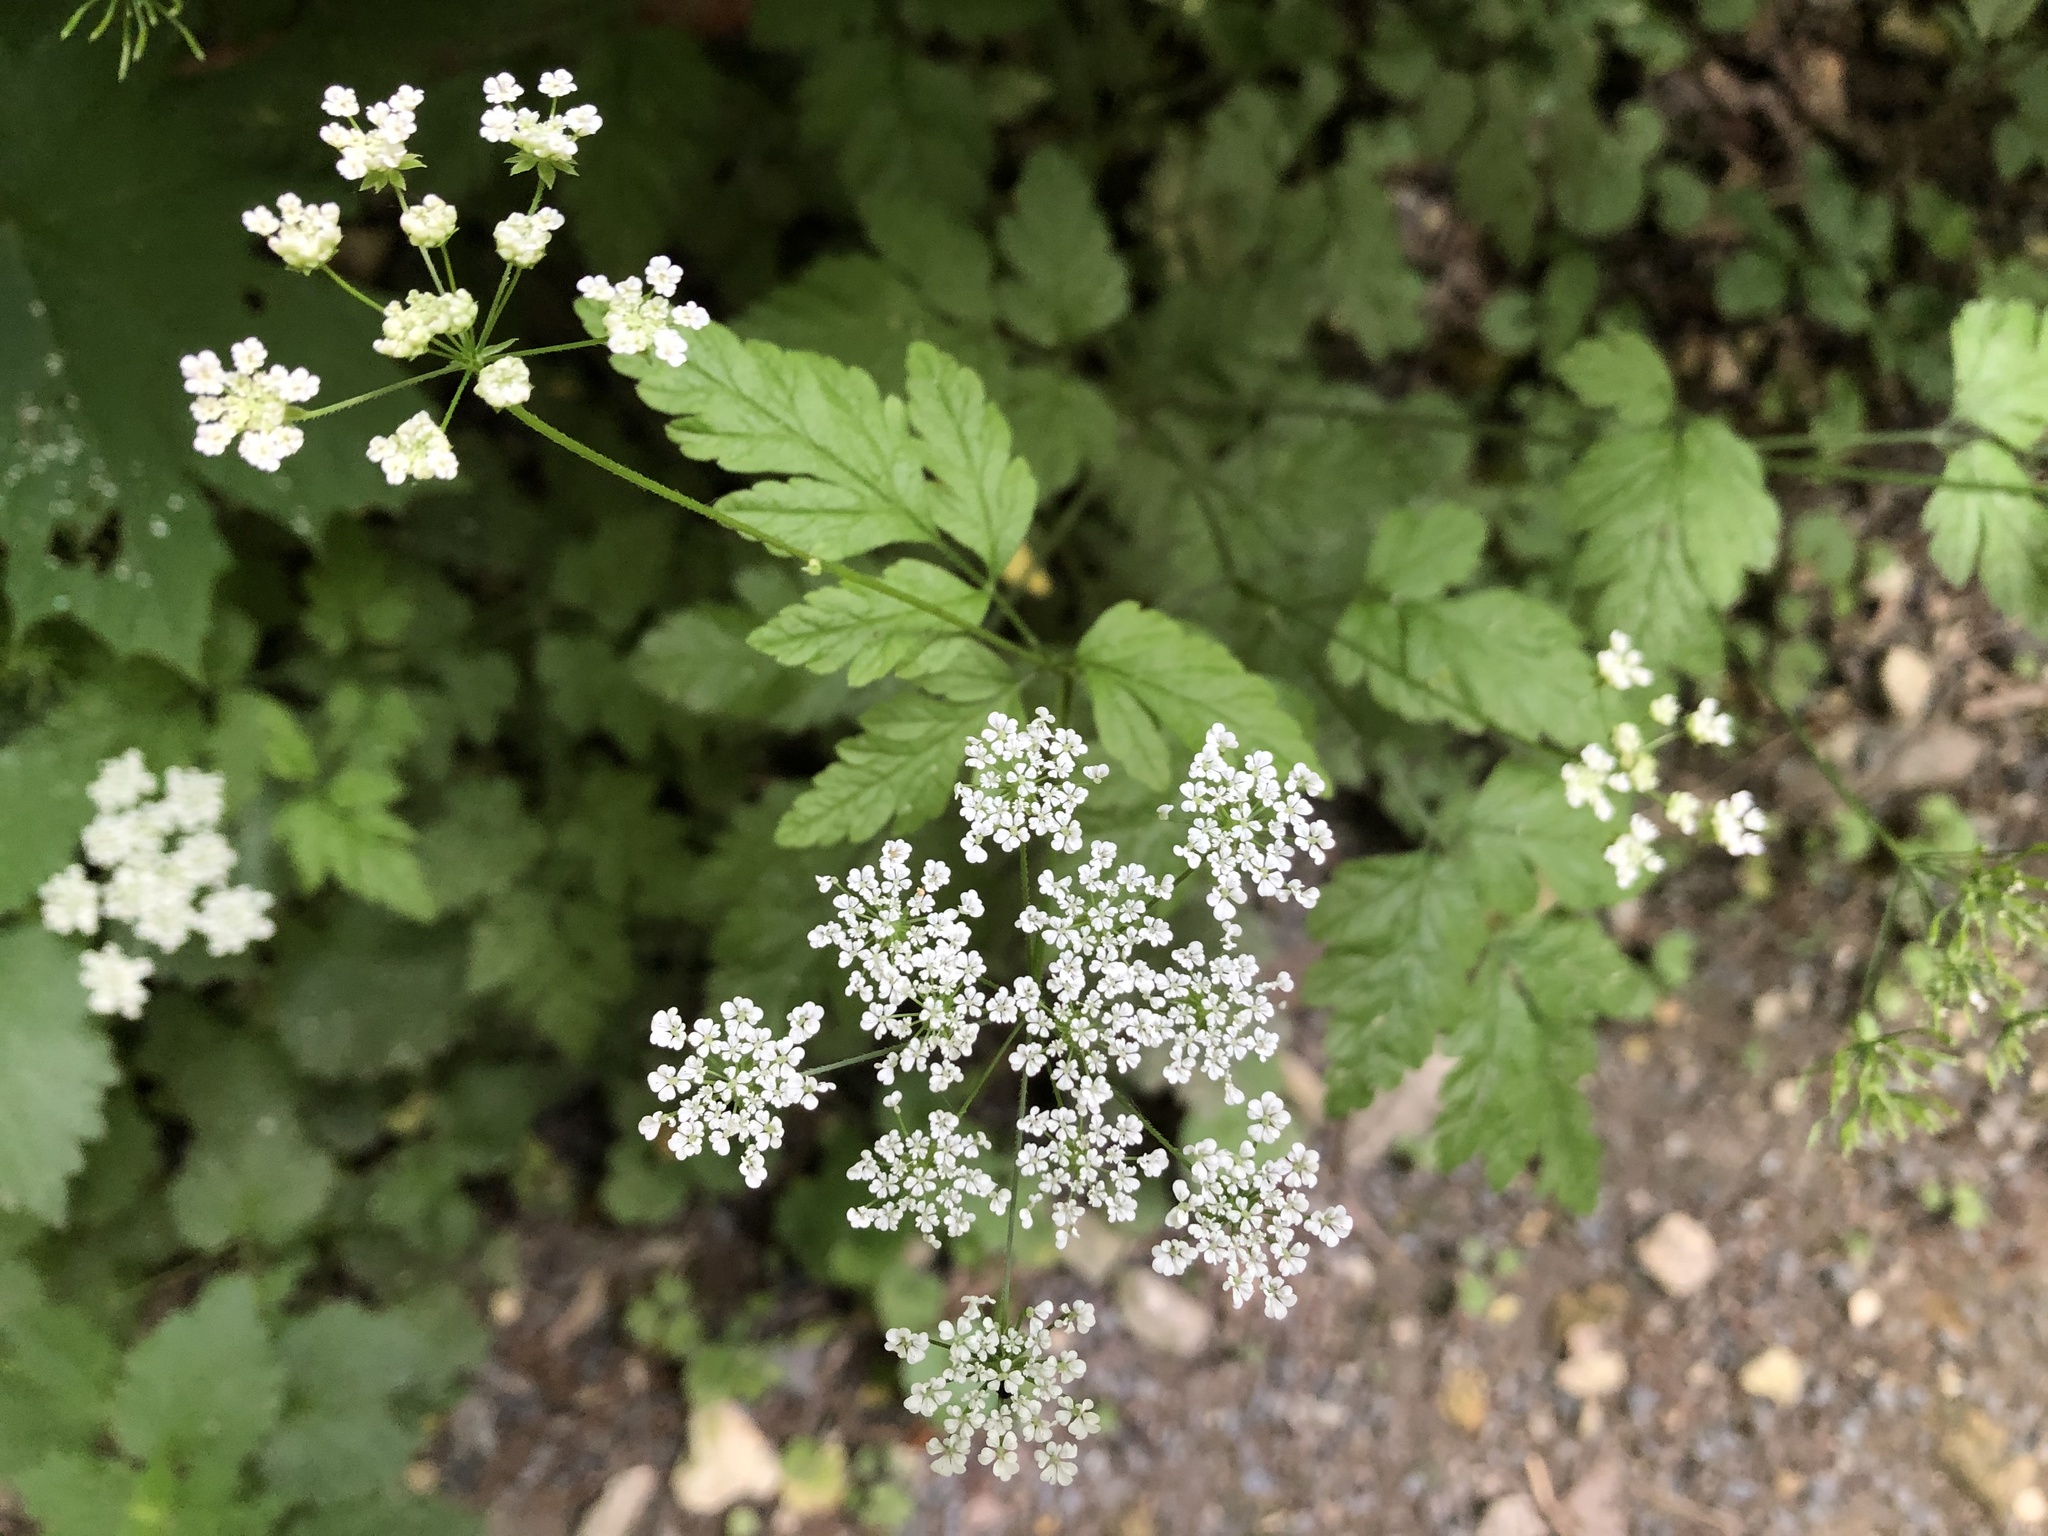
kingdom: Plantae
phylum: Tracheophyta
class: Magnoliopsida
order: Apiales
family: Apiaceae
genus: Chaerophyllum
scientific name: Chaerophyllum temulum
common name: Rough chervil
